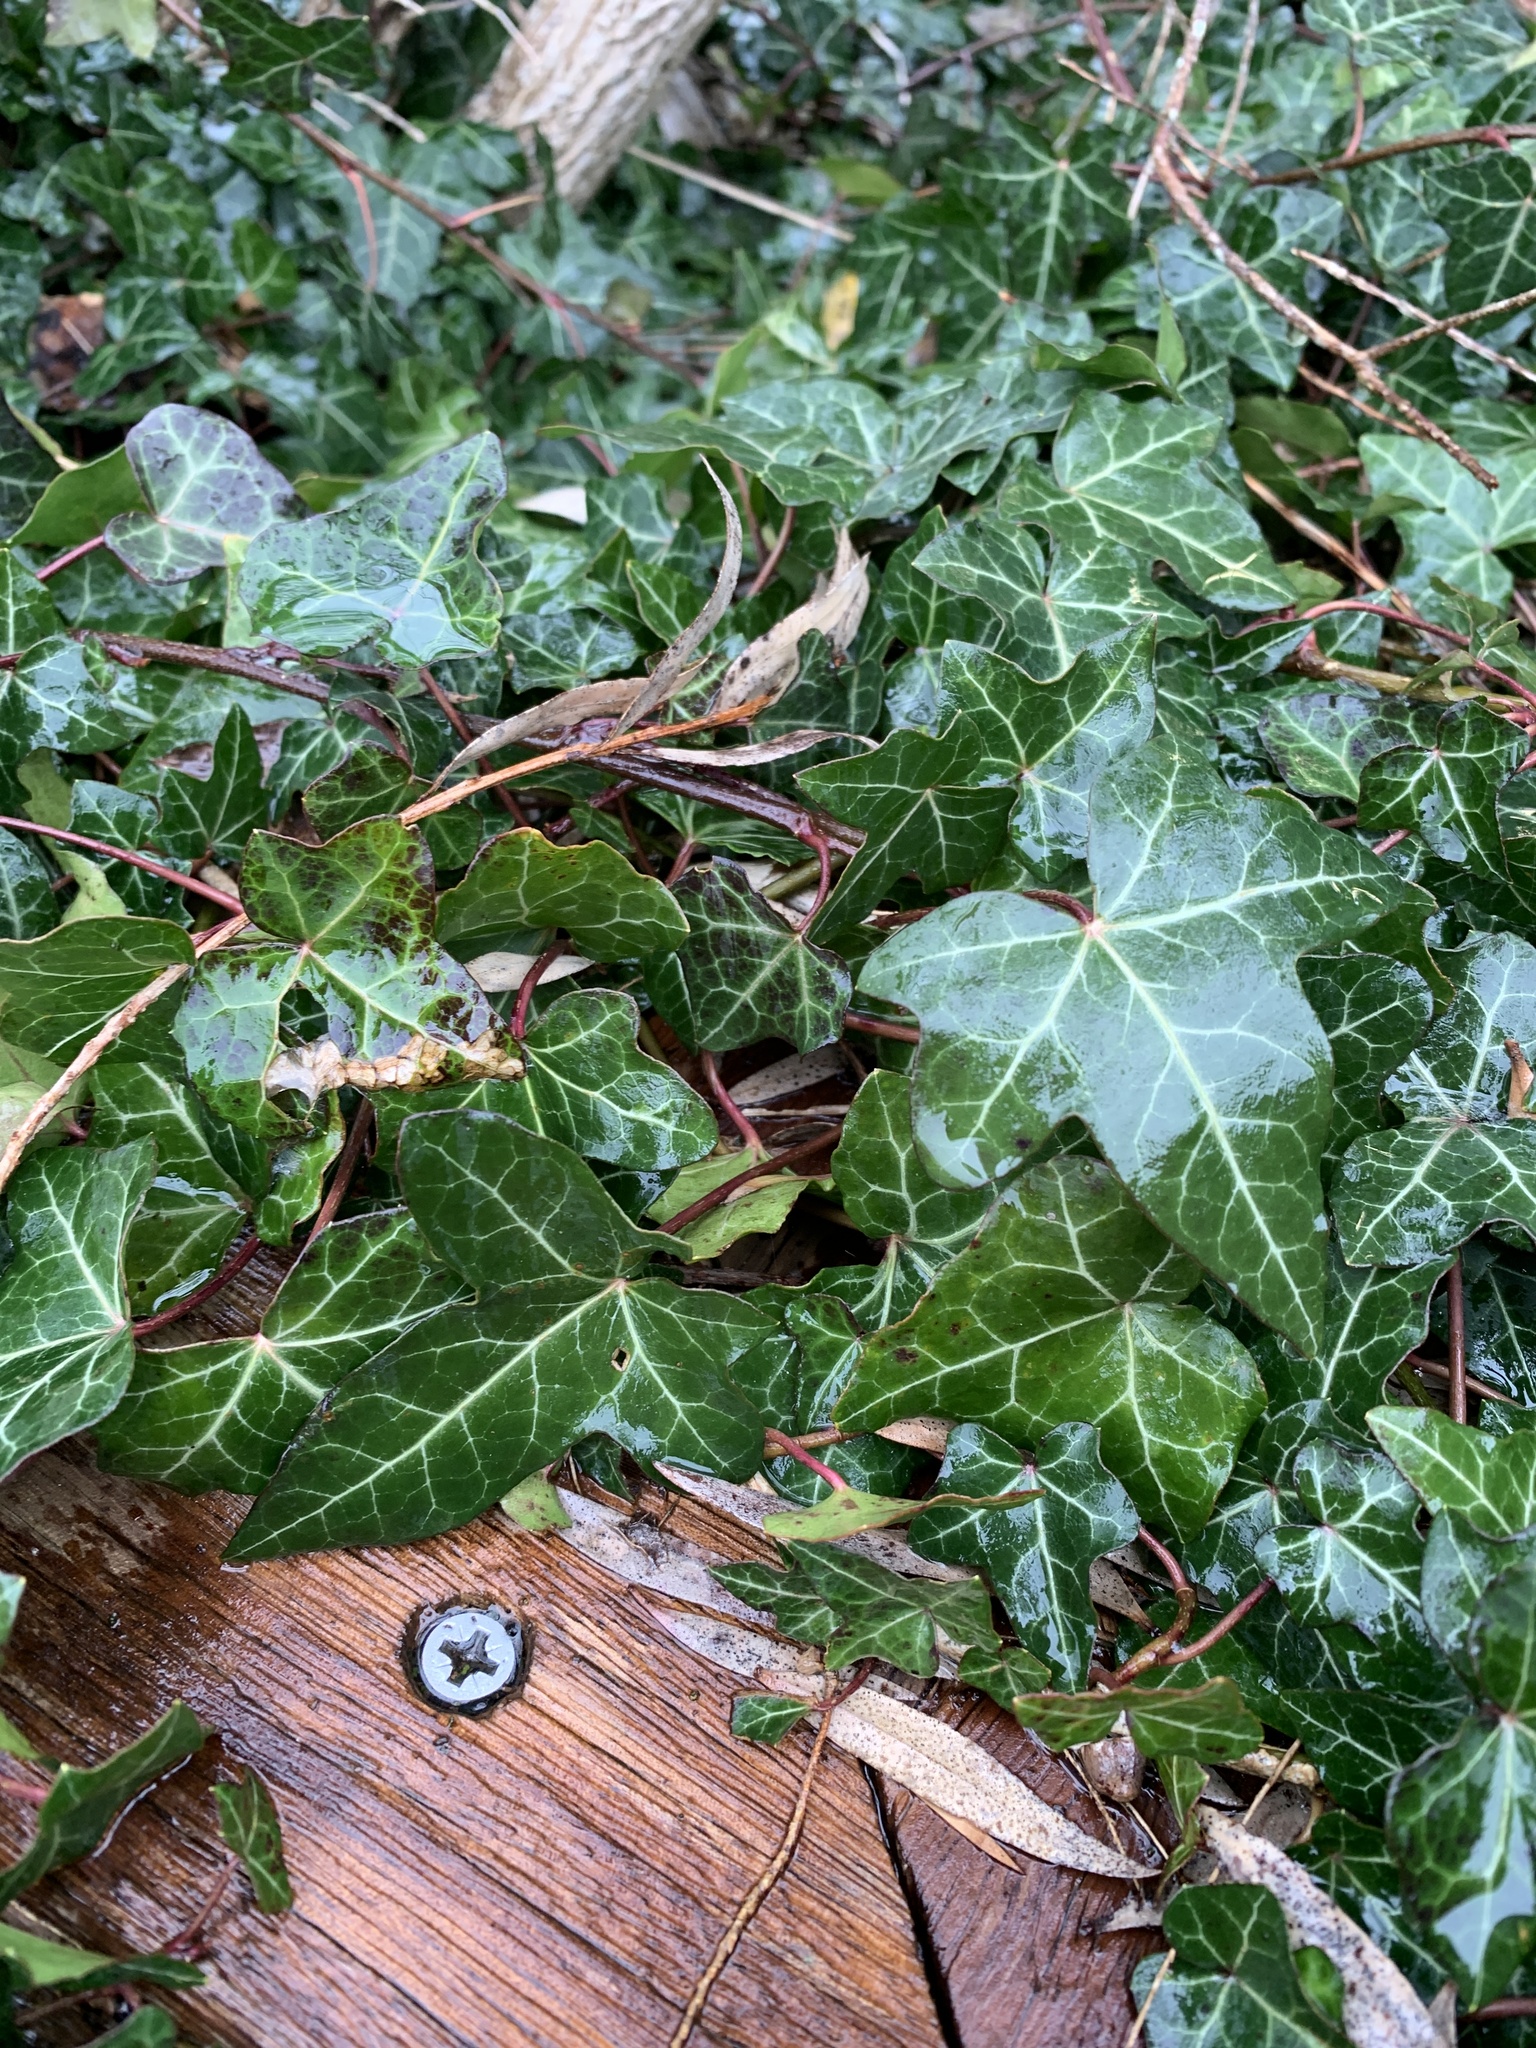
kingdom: Plantae
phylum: Tracheophyta
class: Magnoliopsida
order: Apiales
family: Araliaceae
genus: Hedera
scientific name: Hedera helix
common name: Ivy
